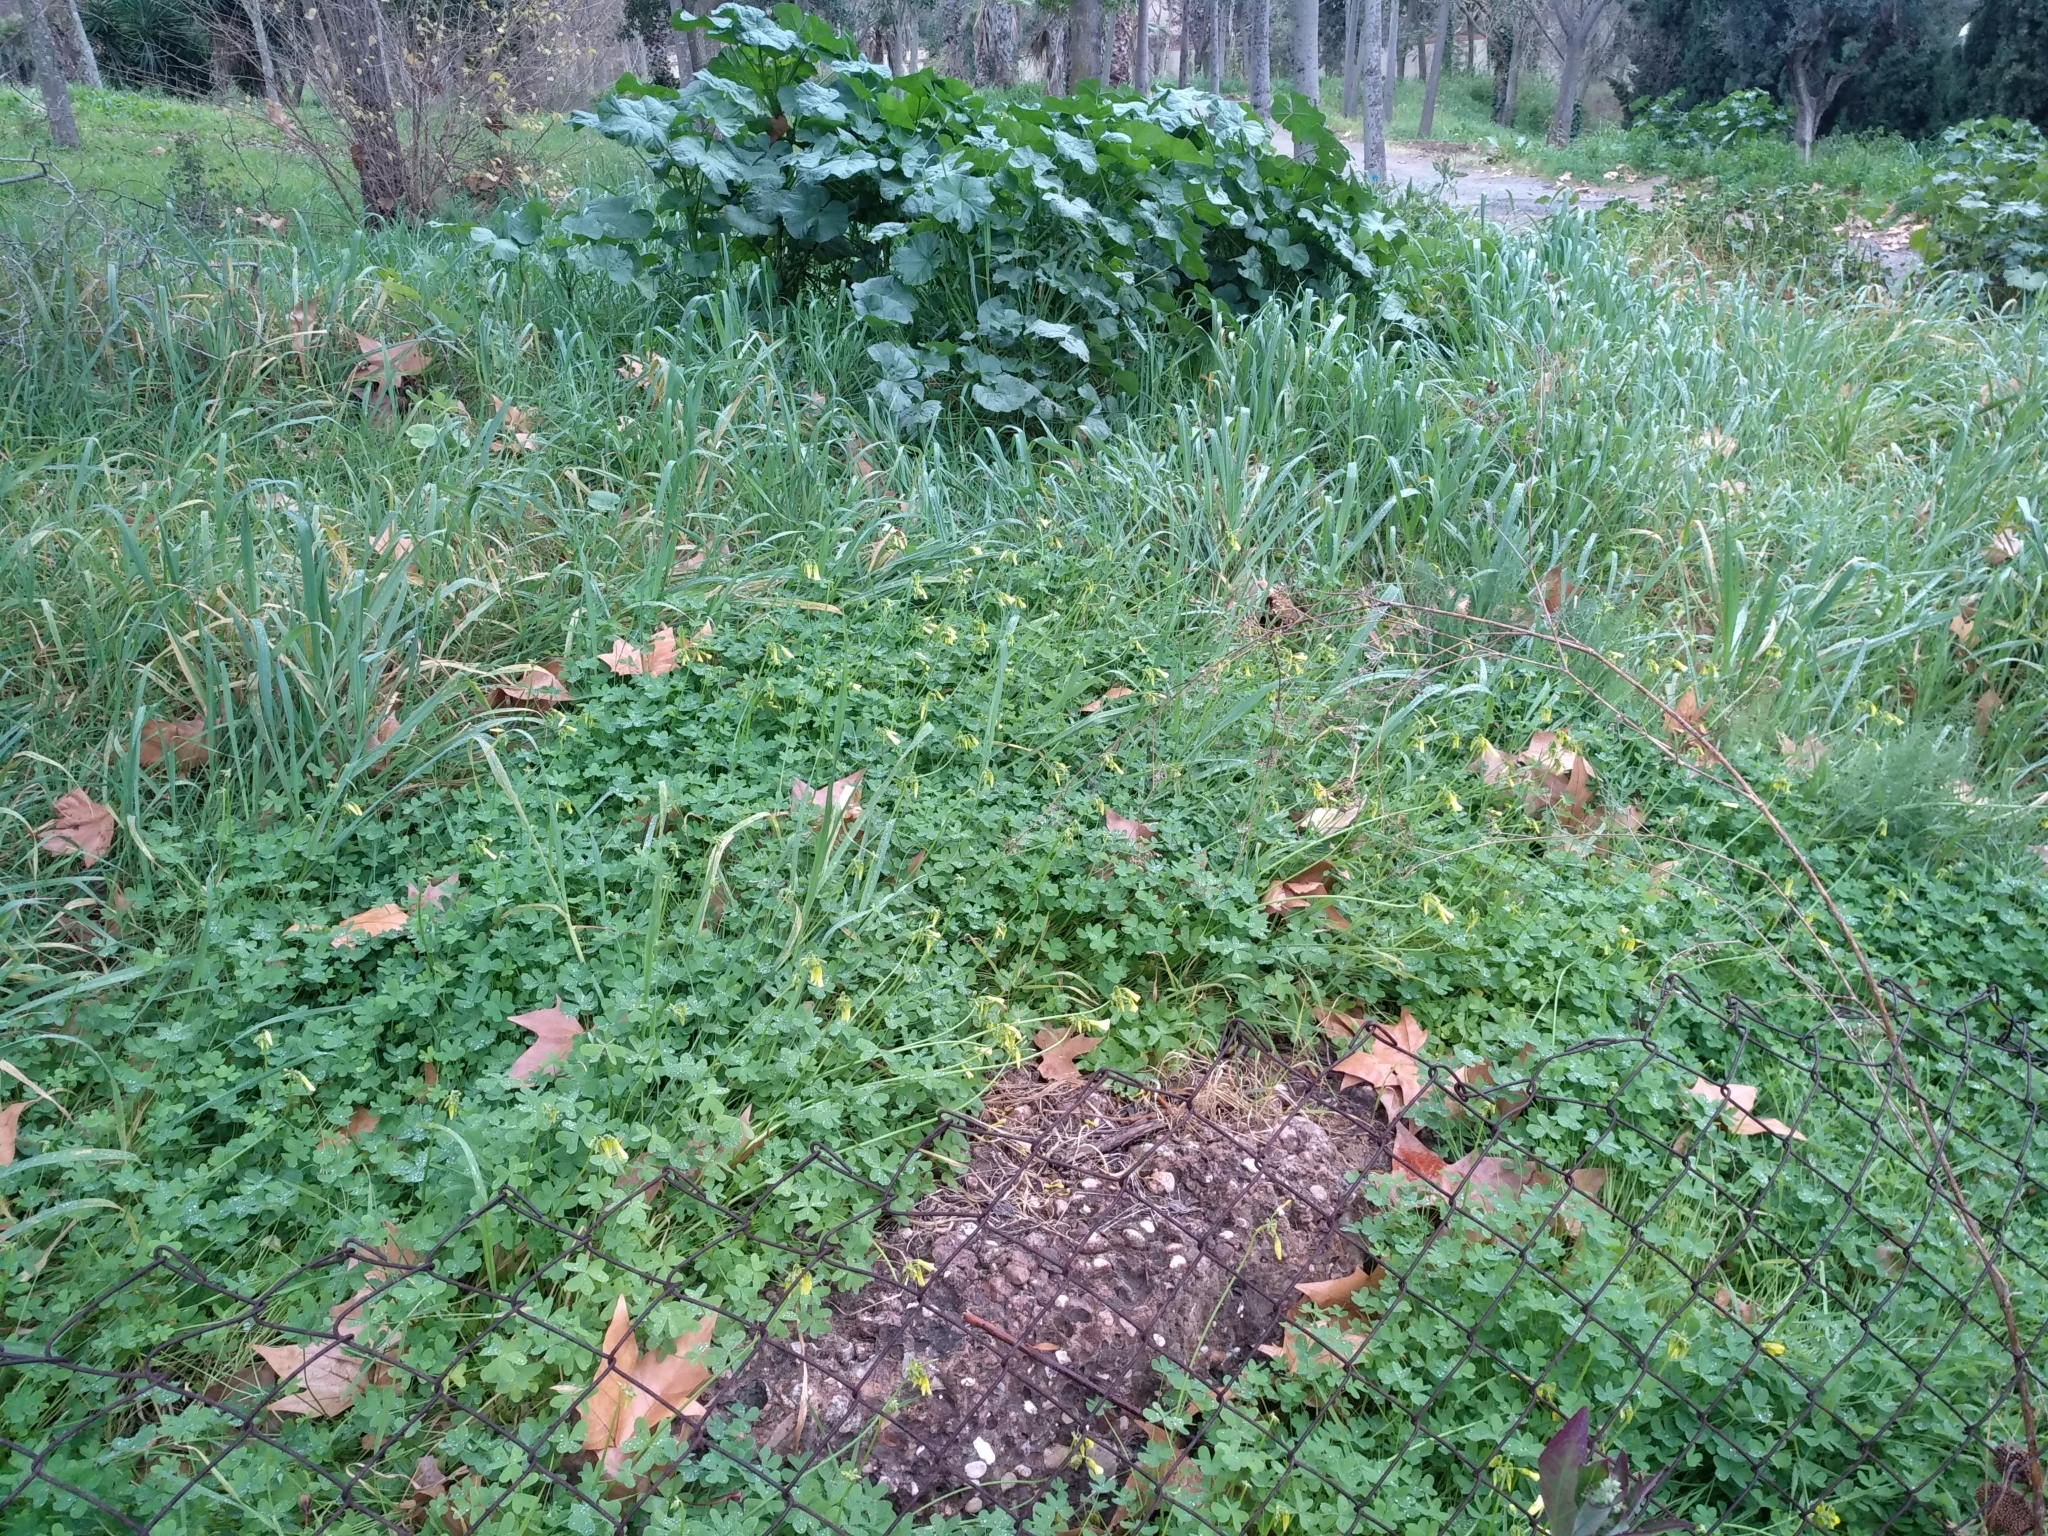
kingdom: Plantae
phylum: Tracheophyta
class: Magnoliopsida
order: Oxalidales
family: Oxalidaceae
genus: Oxalis
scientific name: Oxalis pes-caprae
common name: Bermuda-buttercup
